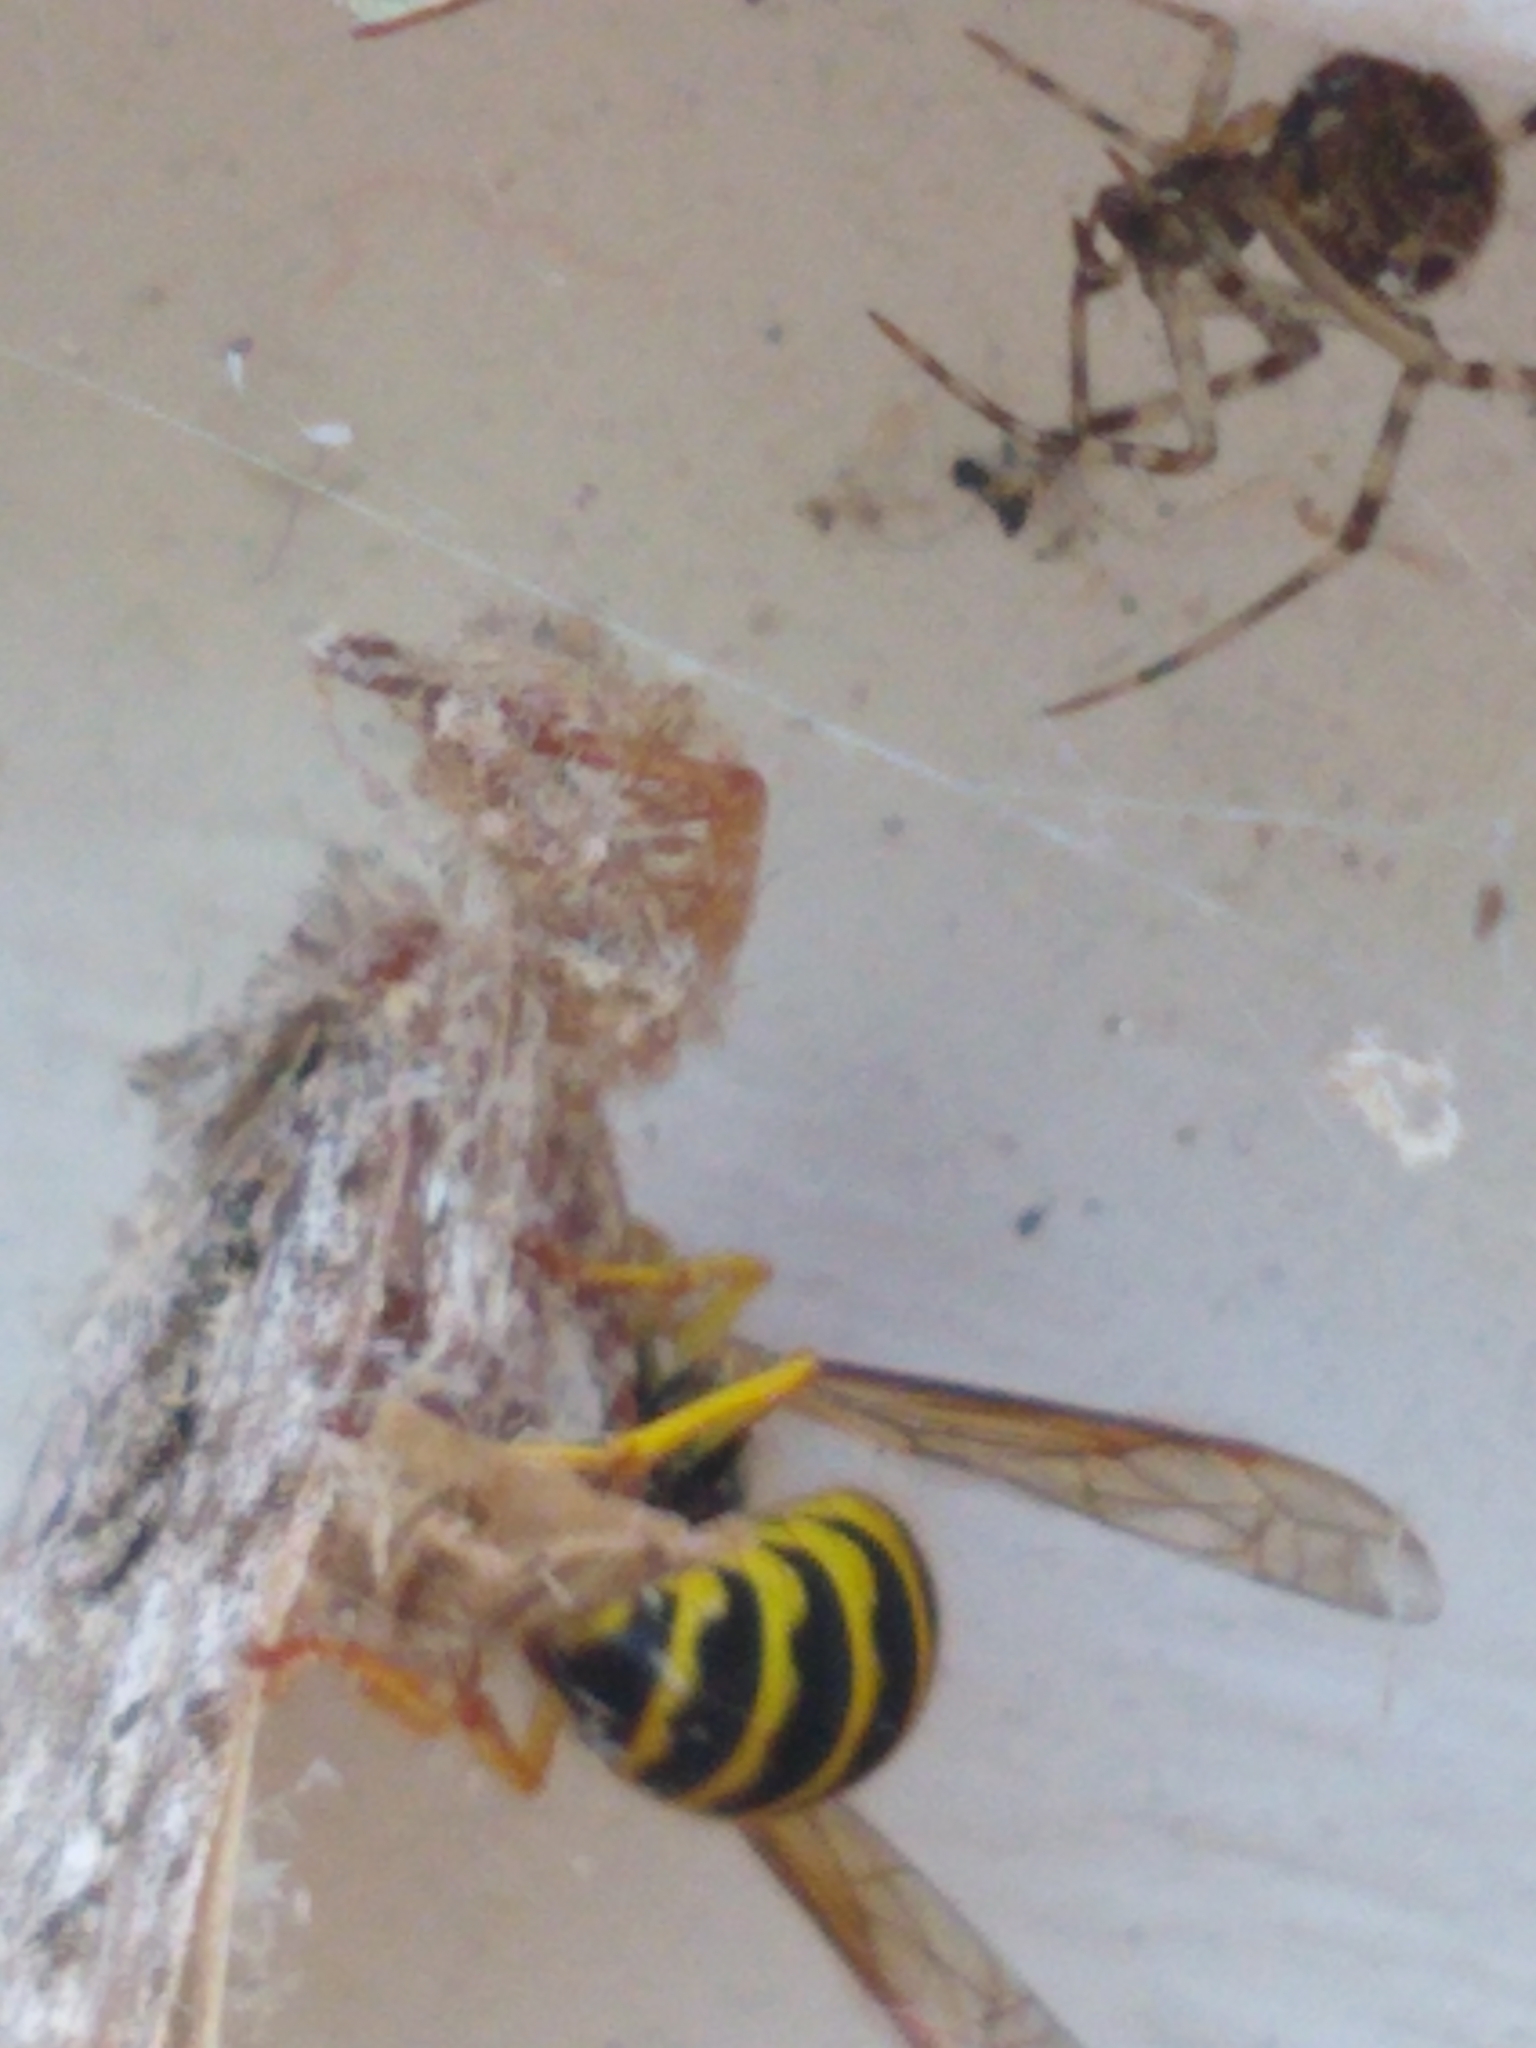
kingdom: Animalia
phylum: Arthropoda
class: Insecta
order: Hymenoptera
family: Vespidae
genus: Vespula
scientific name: Vespula
